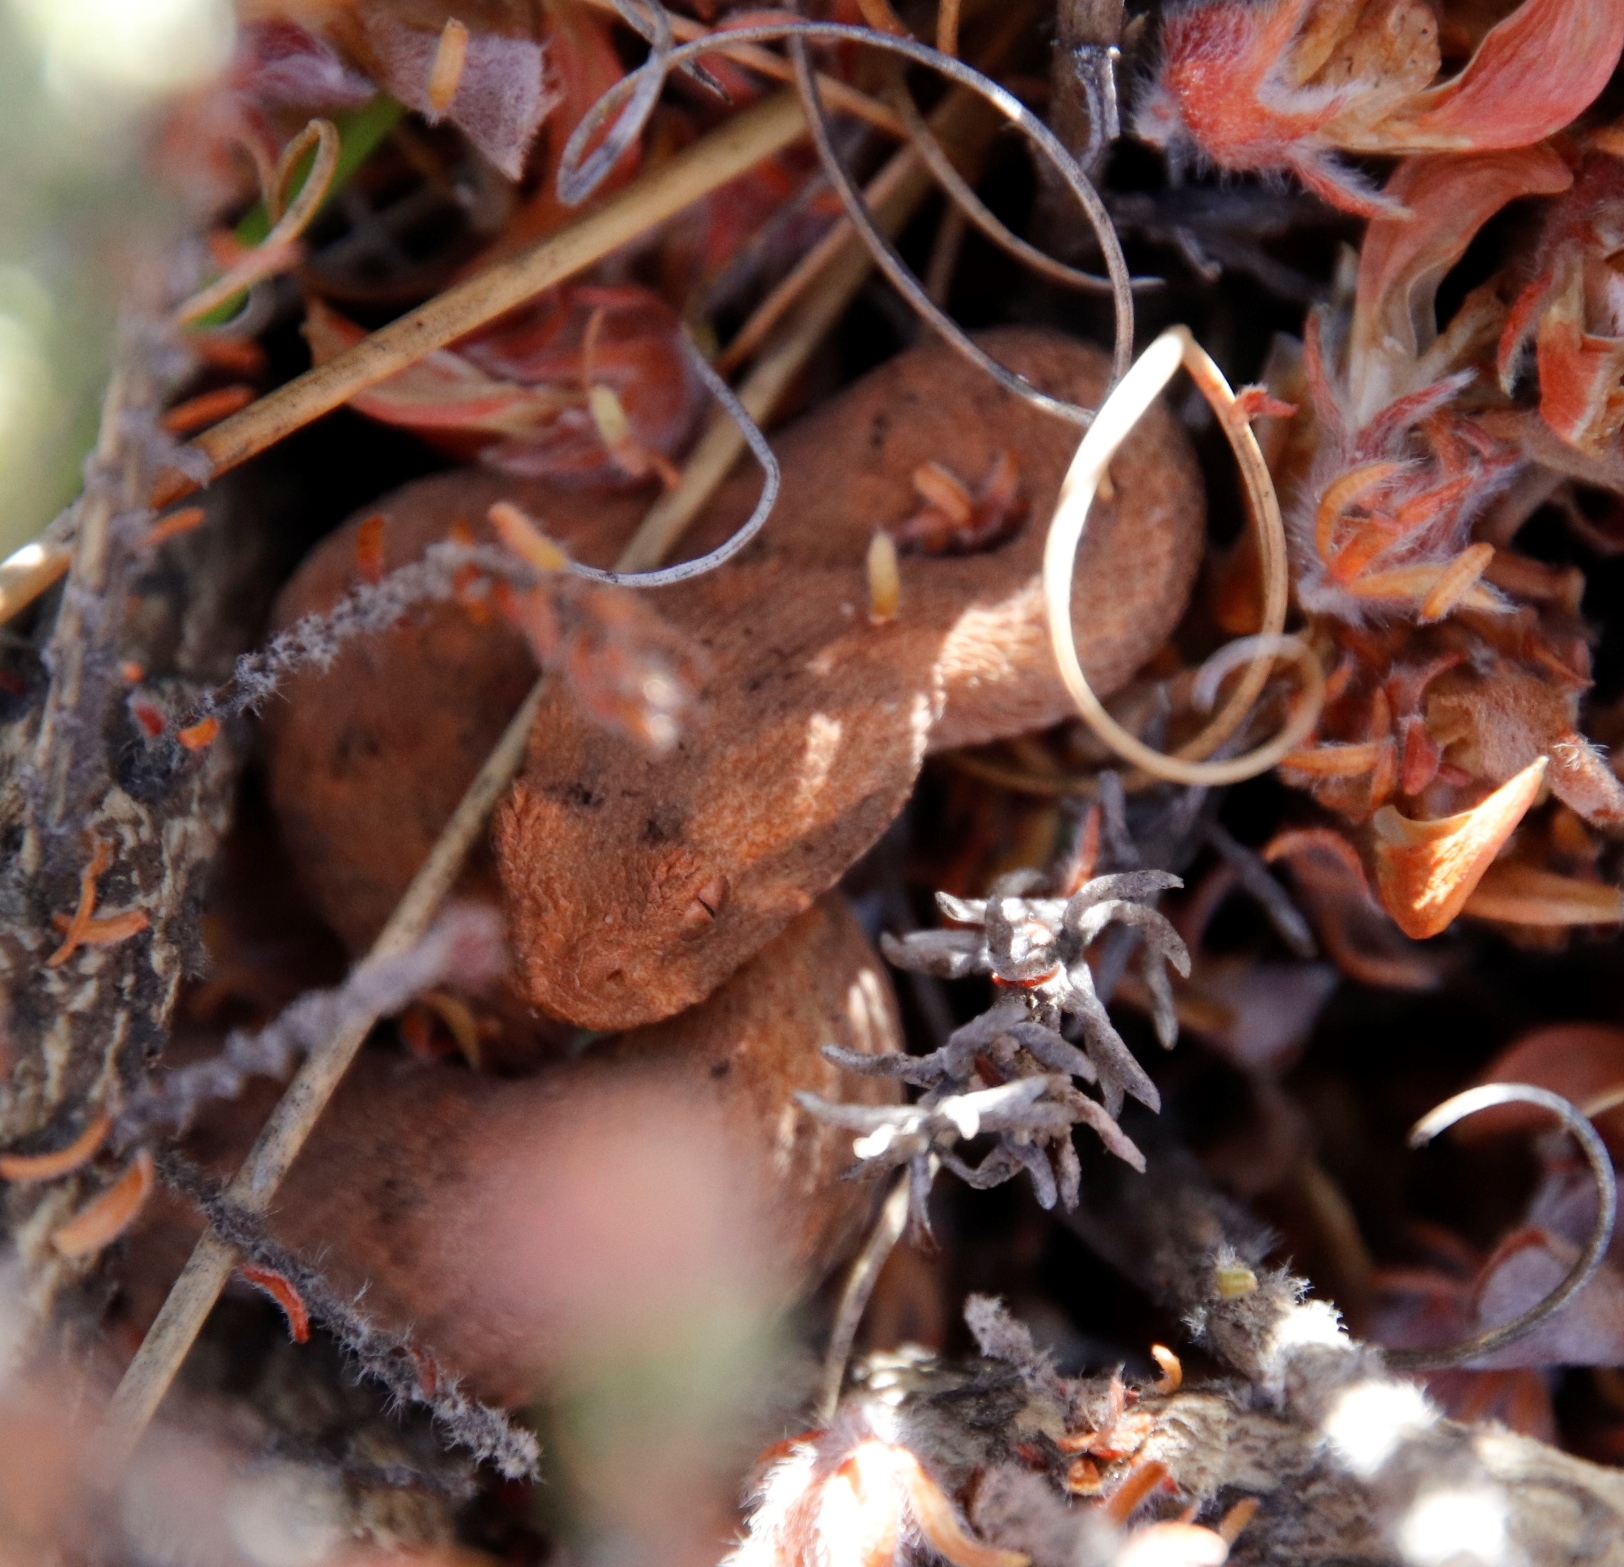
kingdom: Animalia
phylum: Chordata
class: Squamata
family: Viperidae
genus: Bitis
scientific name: Bitis rubida
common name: Red adder
